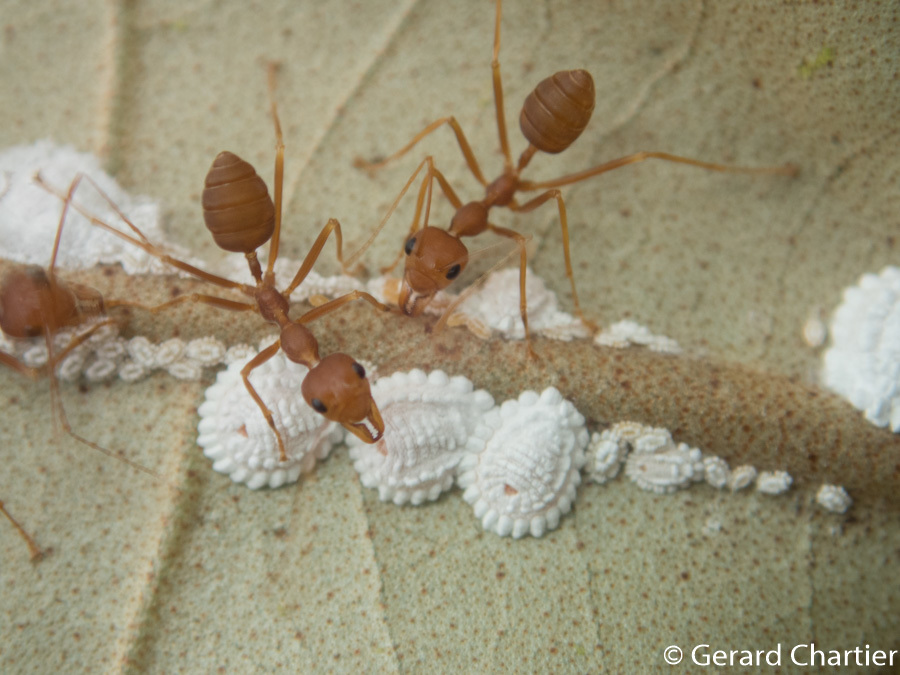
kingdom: Animalia
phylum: Arthropoda
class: Insecta
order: Hymenoptera
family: Formicidae
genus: Oecophylla
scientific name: Oecophylla smaragdina
